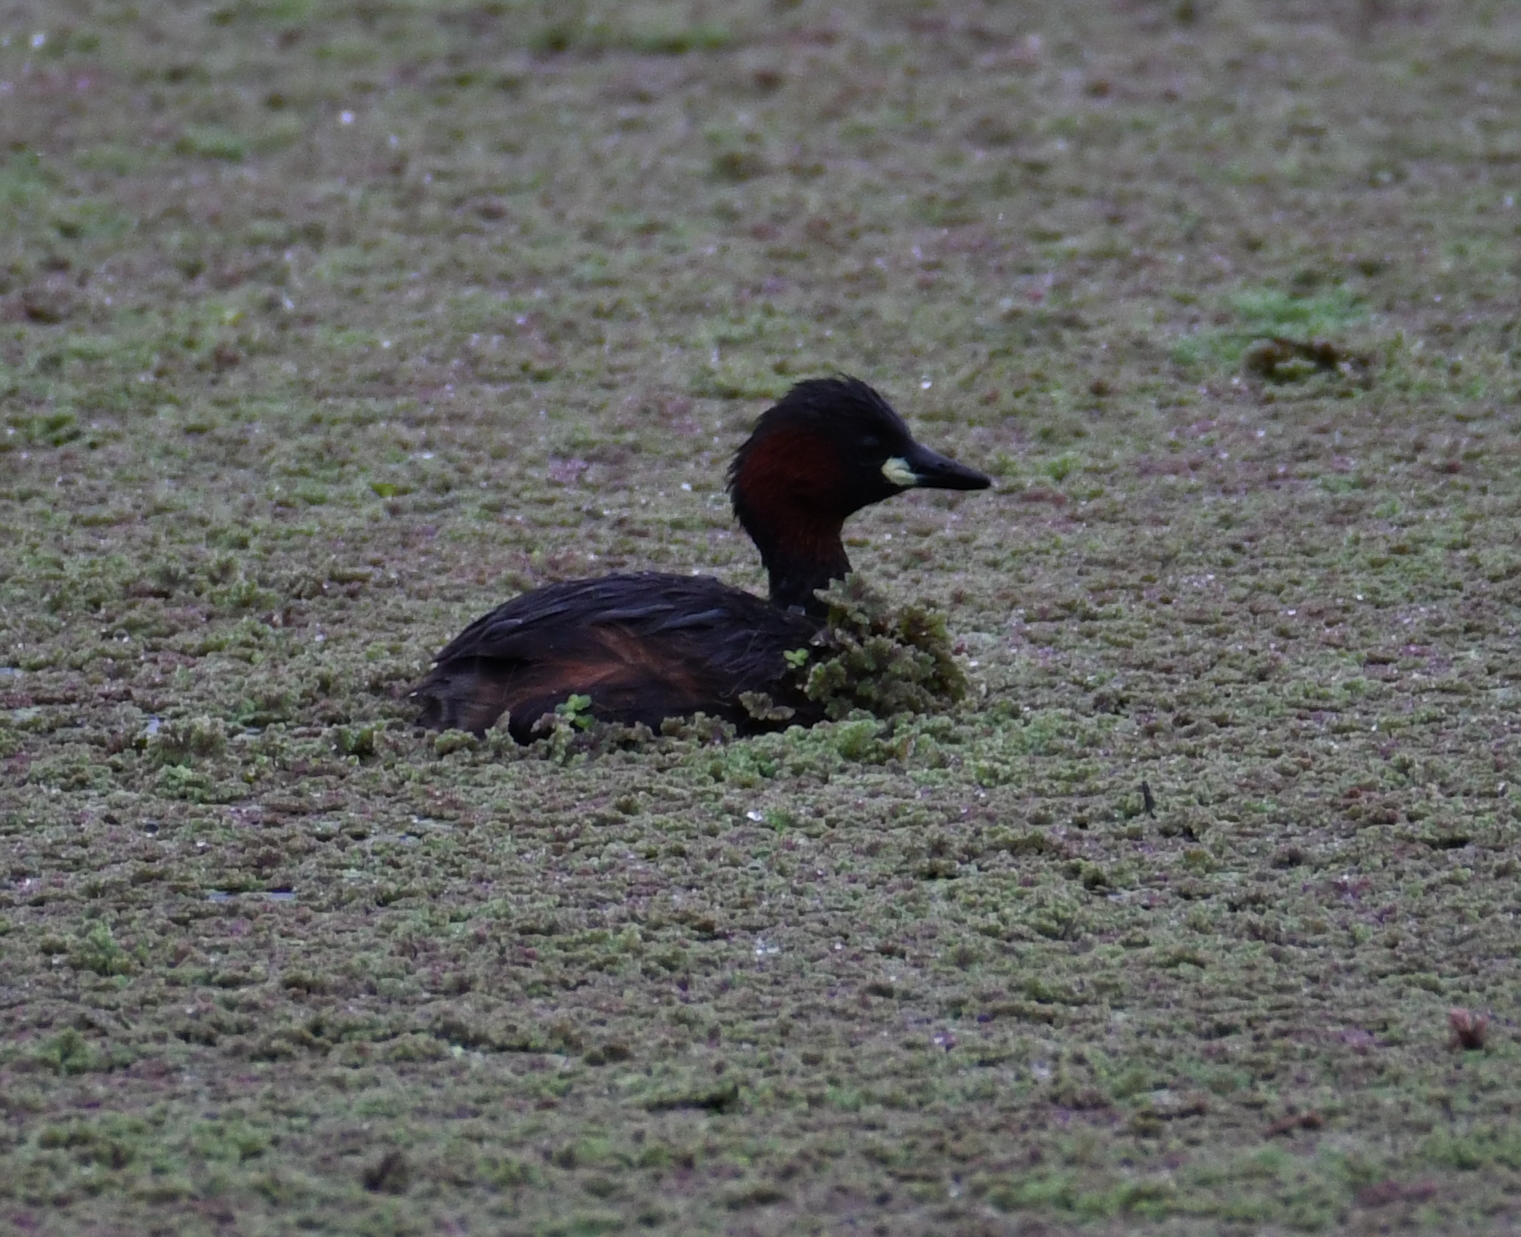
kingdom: Animalia
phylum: Chordata
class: Aves
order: Podicipediformes
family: Podicipedidae
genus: Tachybaptus
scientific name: Tachybaptus ruficollis
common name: Little grebe
